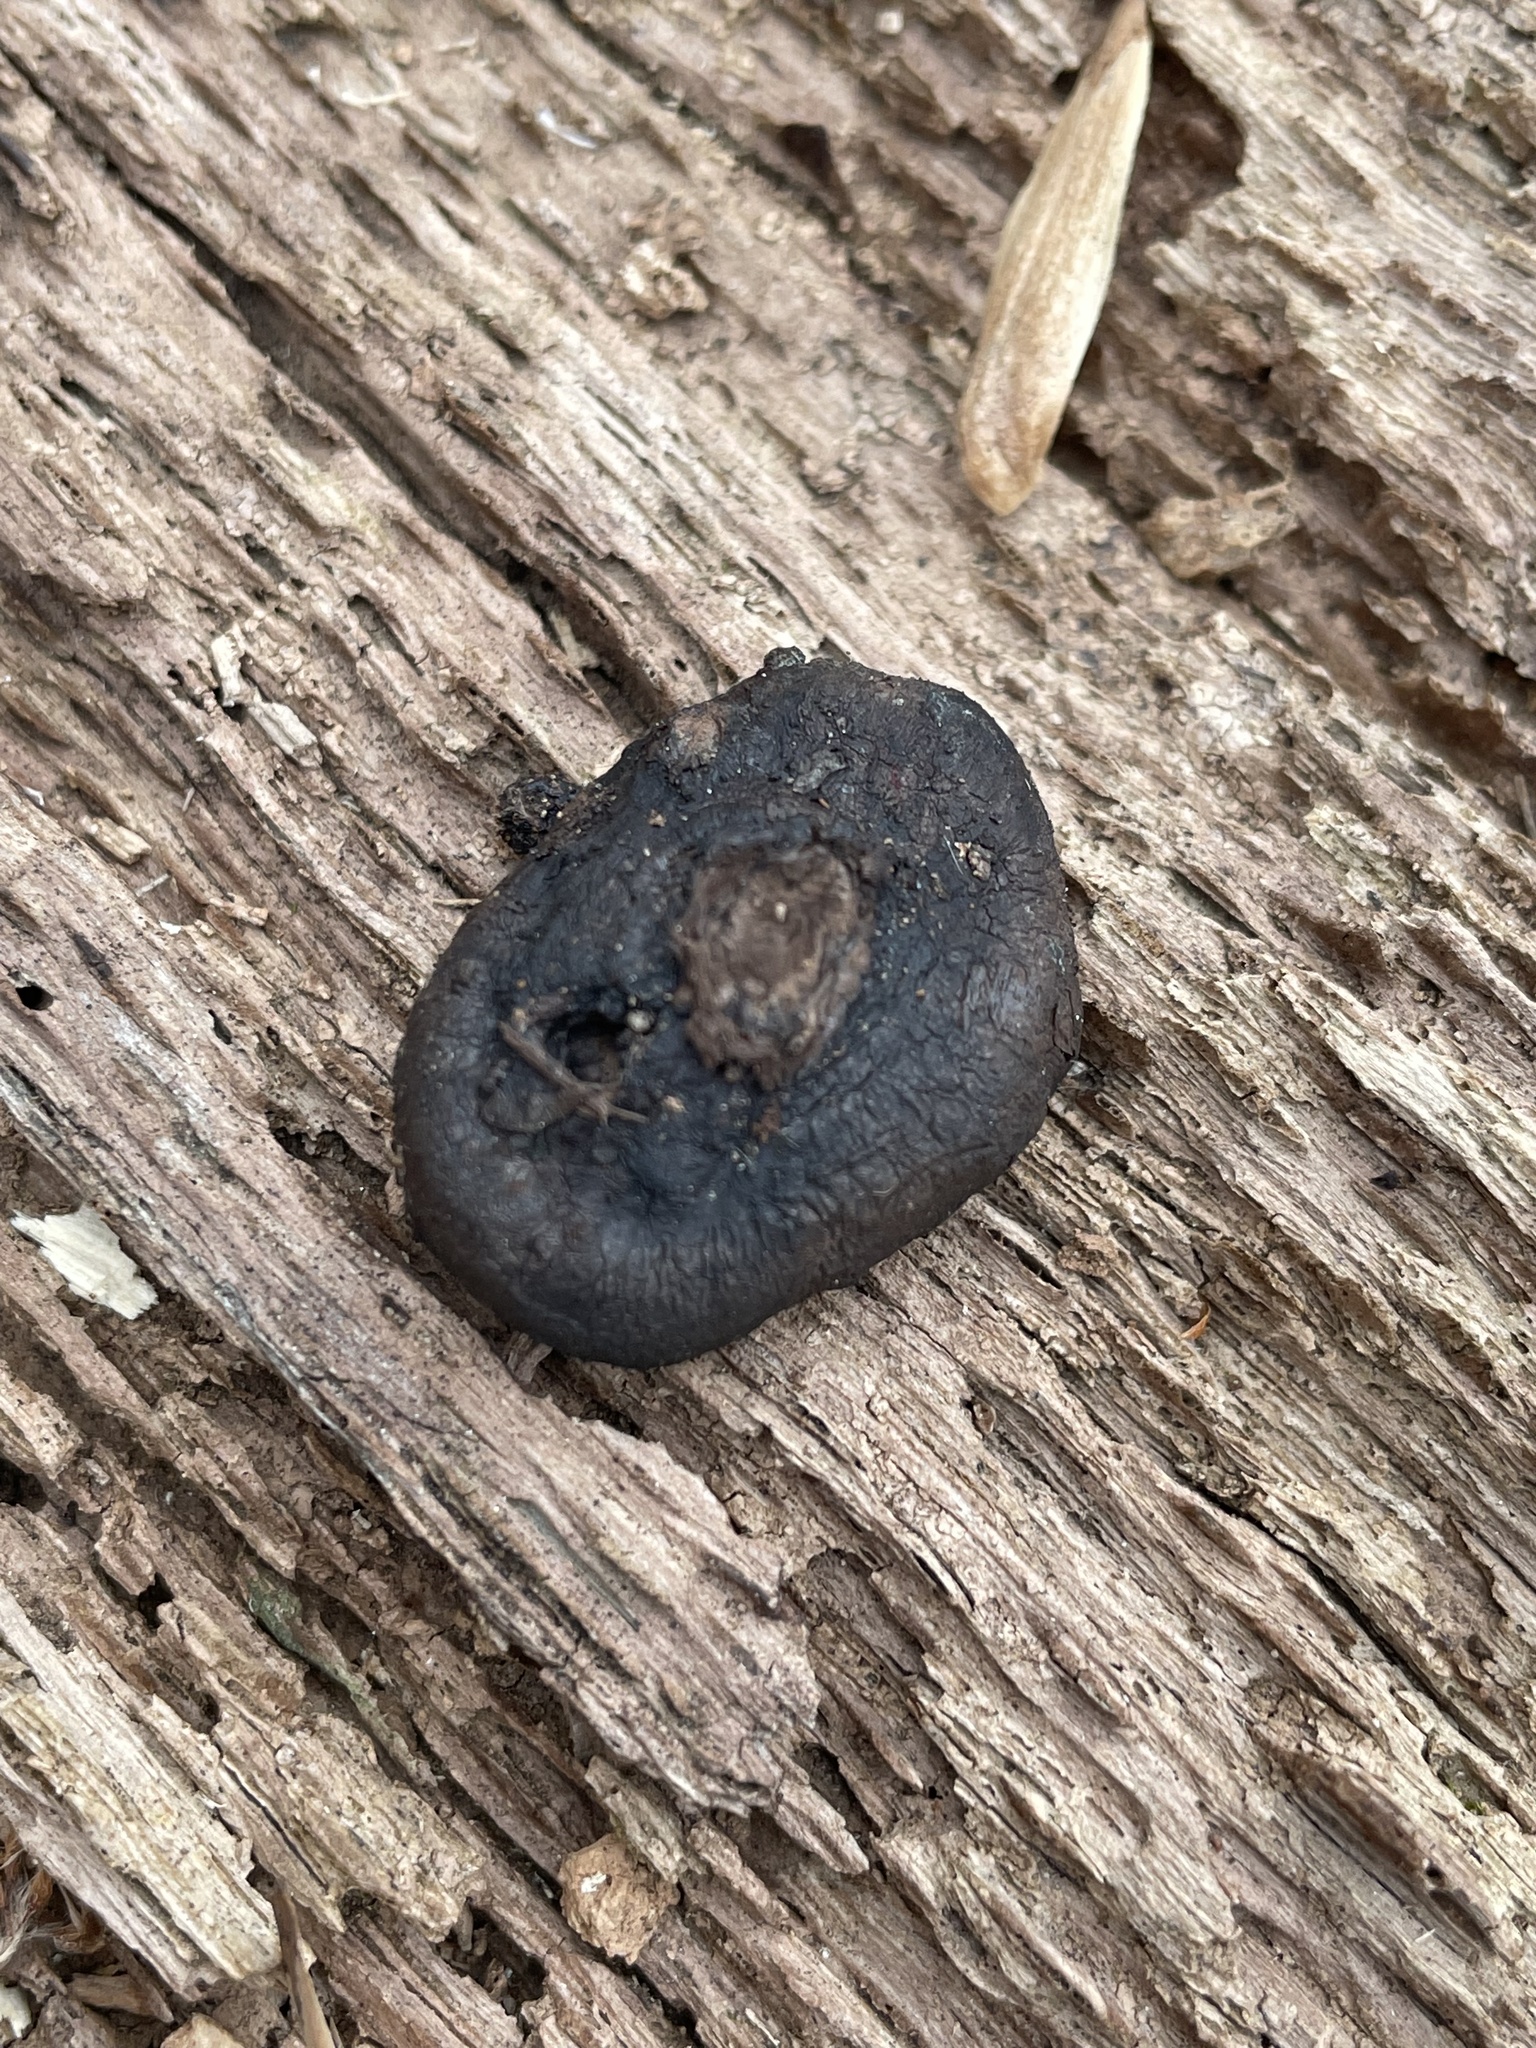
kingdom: Fungi
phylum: Ascomycota
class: Sordariomycetes
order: Boliniales
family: Boliniaceae
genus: Camarops
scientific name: Camarops petersii
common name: Dog's nose fungus
